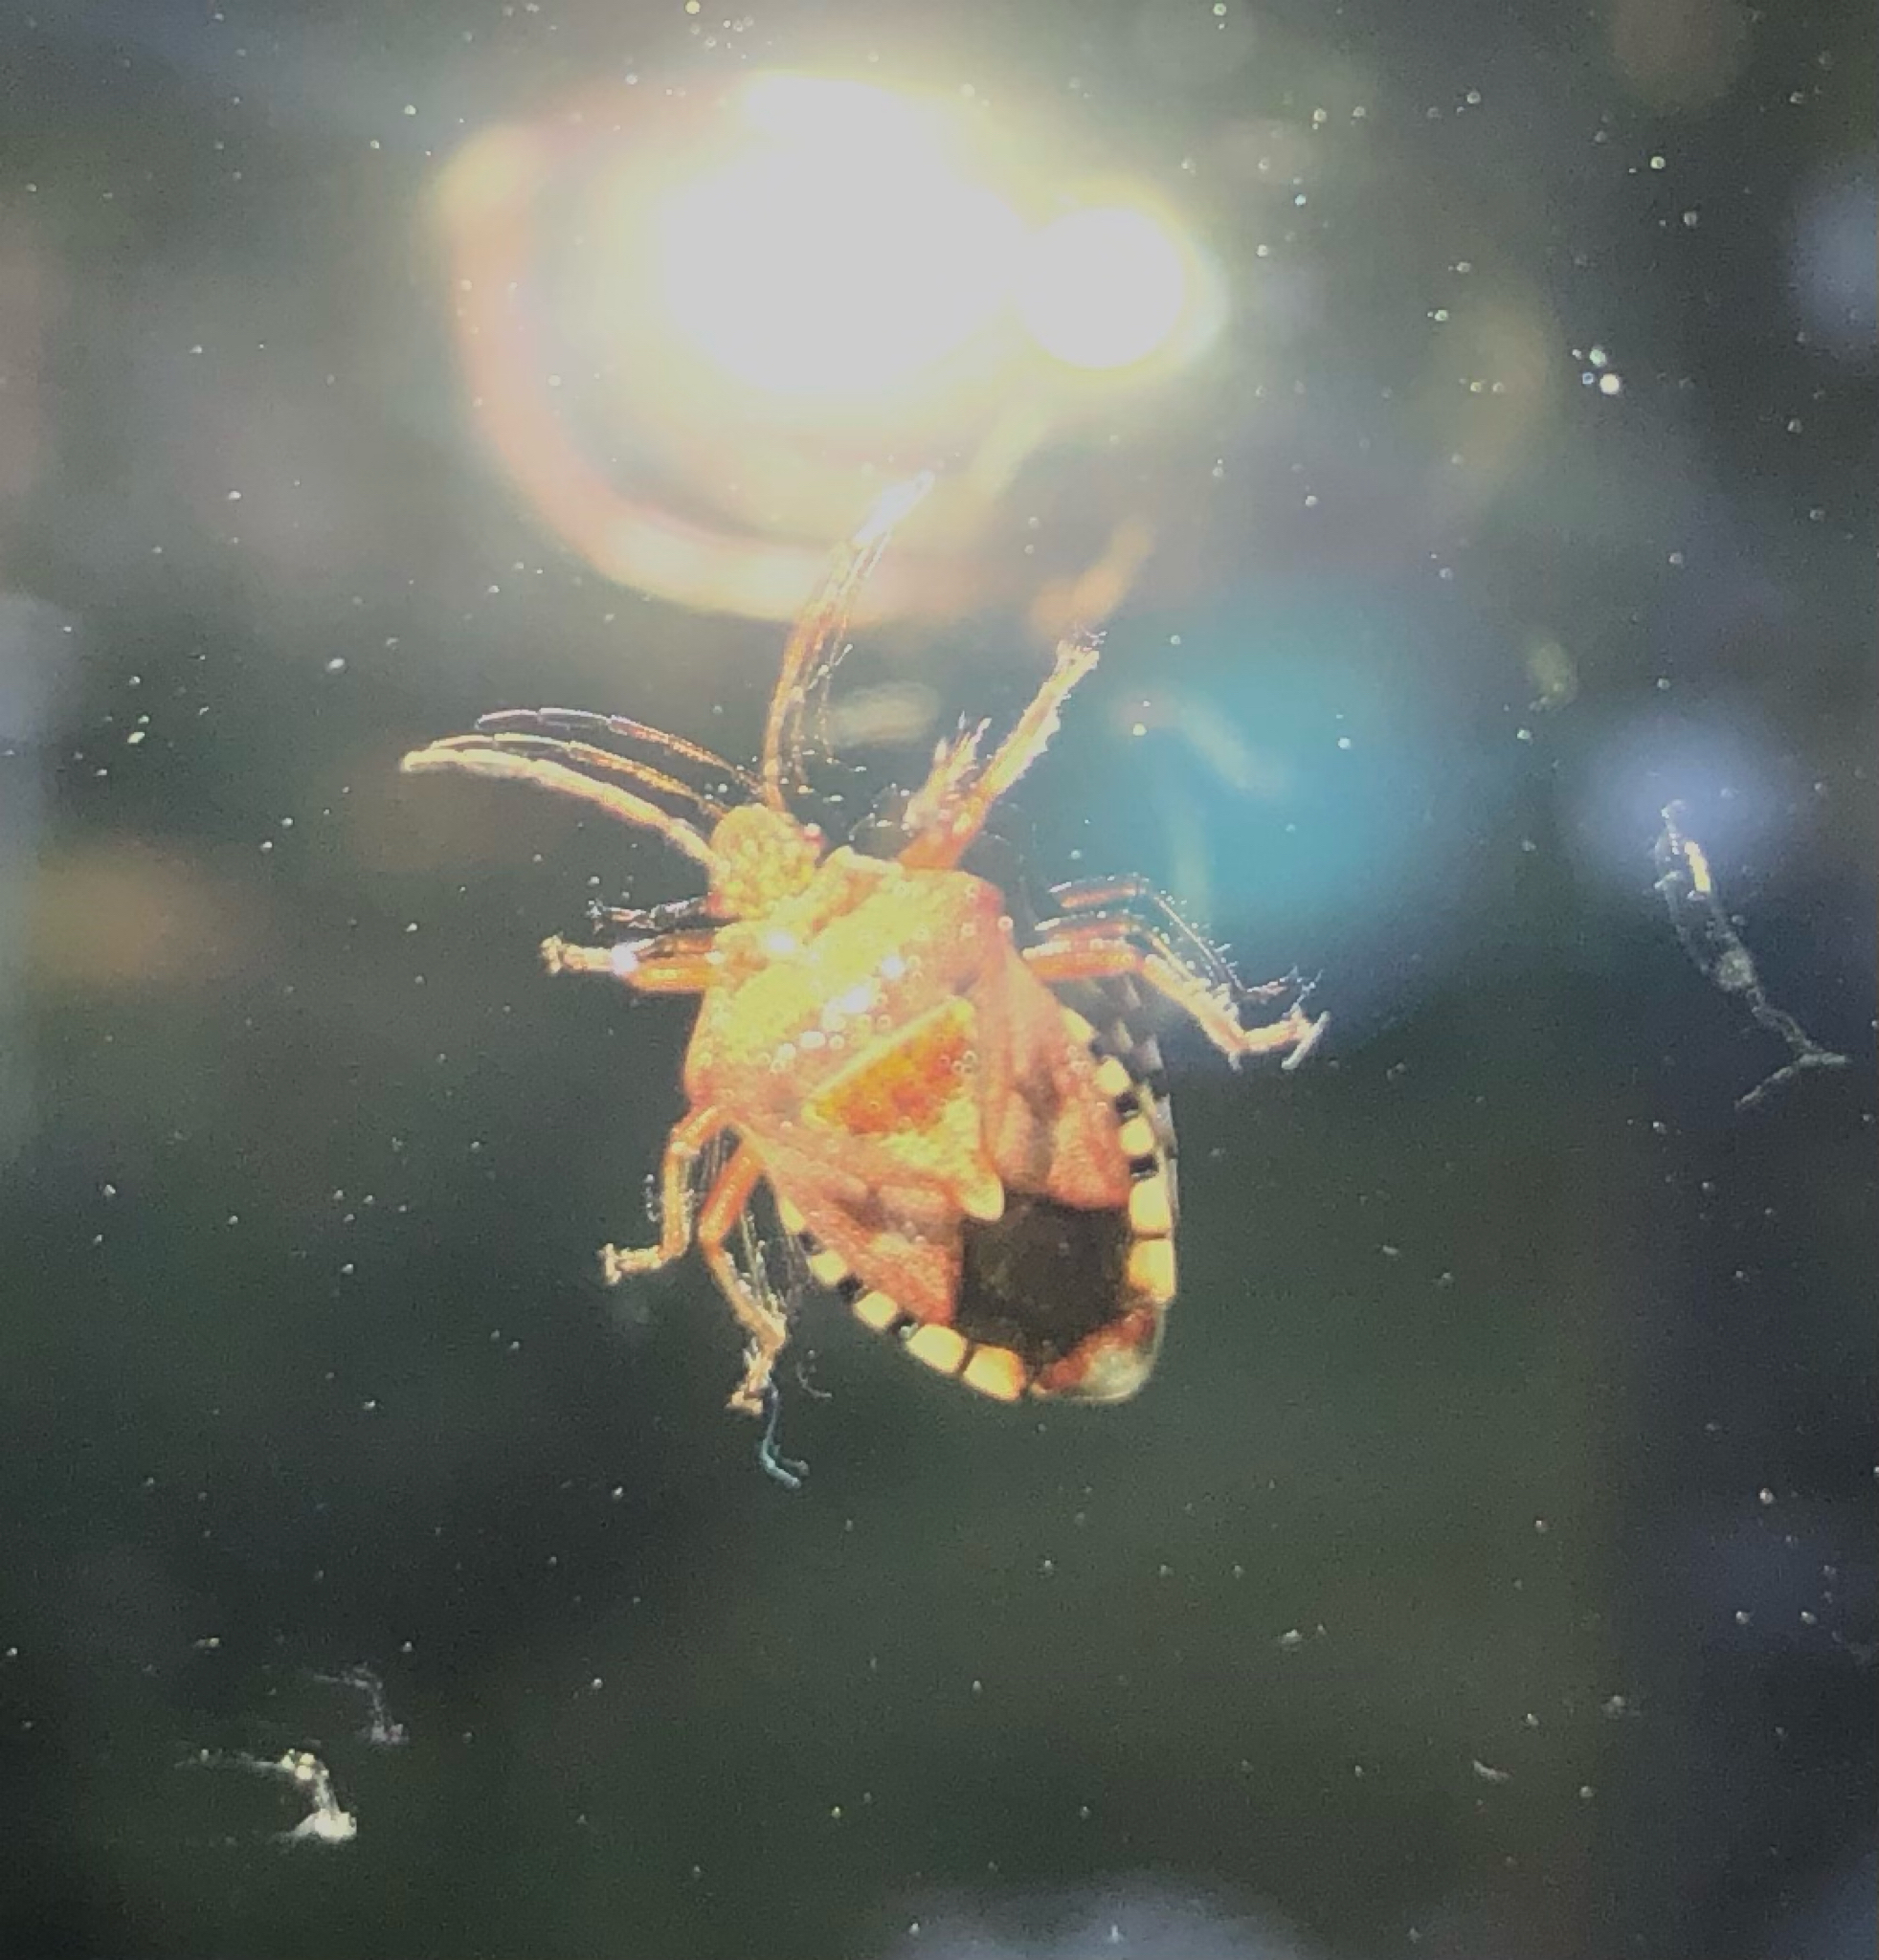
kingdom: Animalia
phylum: Arthropoda
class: Insecta
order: Hemiptera
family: Acanthosomatidae
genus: Elasmucha
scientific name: Elasmucha grisea
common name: Parent bug
